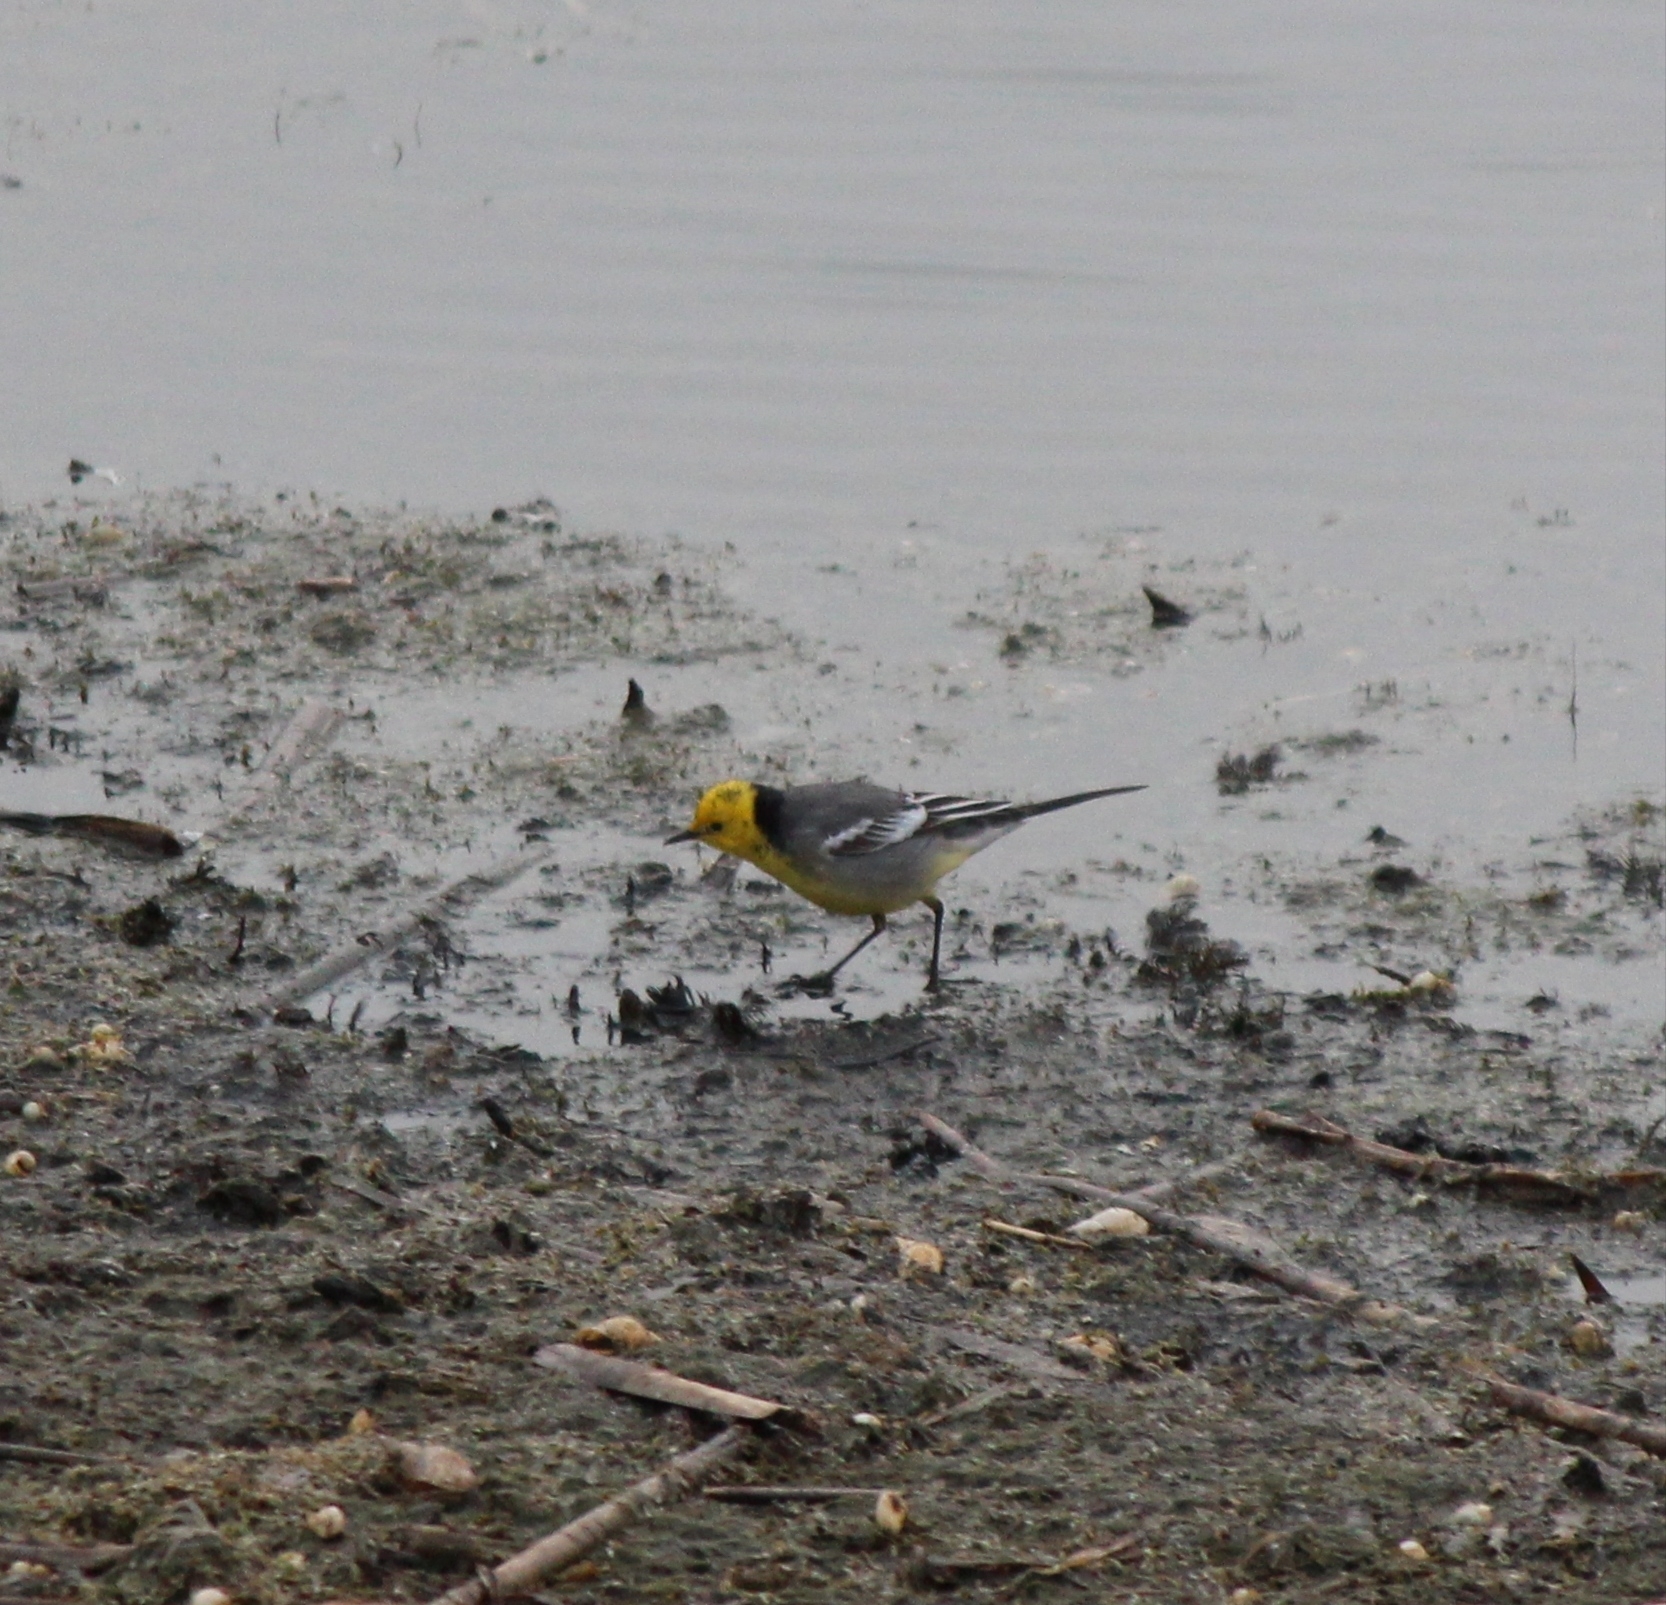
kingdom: Animalia
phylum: Chordata
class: Aves
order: Passeriformes
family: Motacillidae
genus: Motacilla
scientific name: Motacilla citreola
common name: Citrine wagtail
